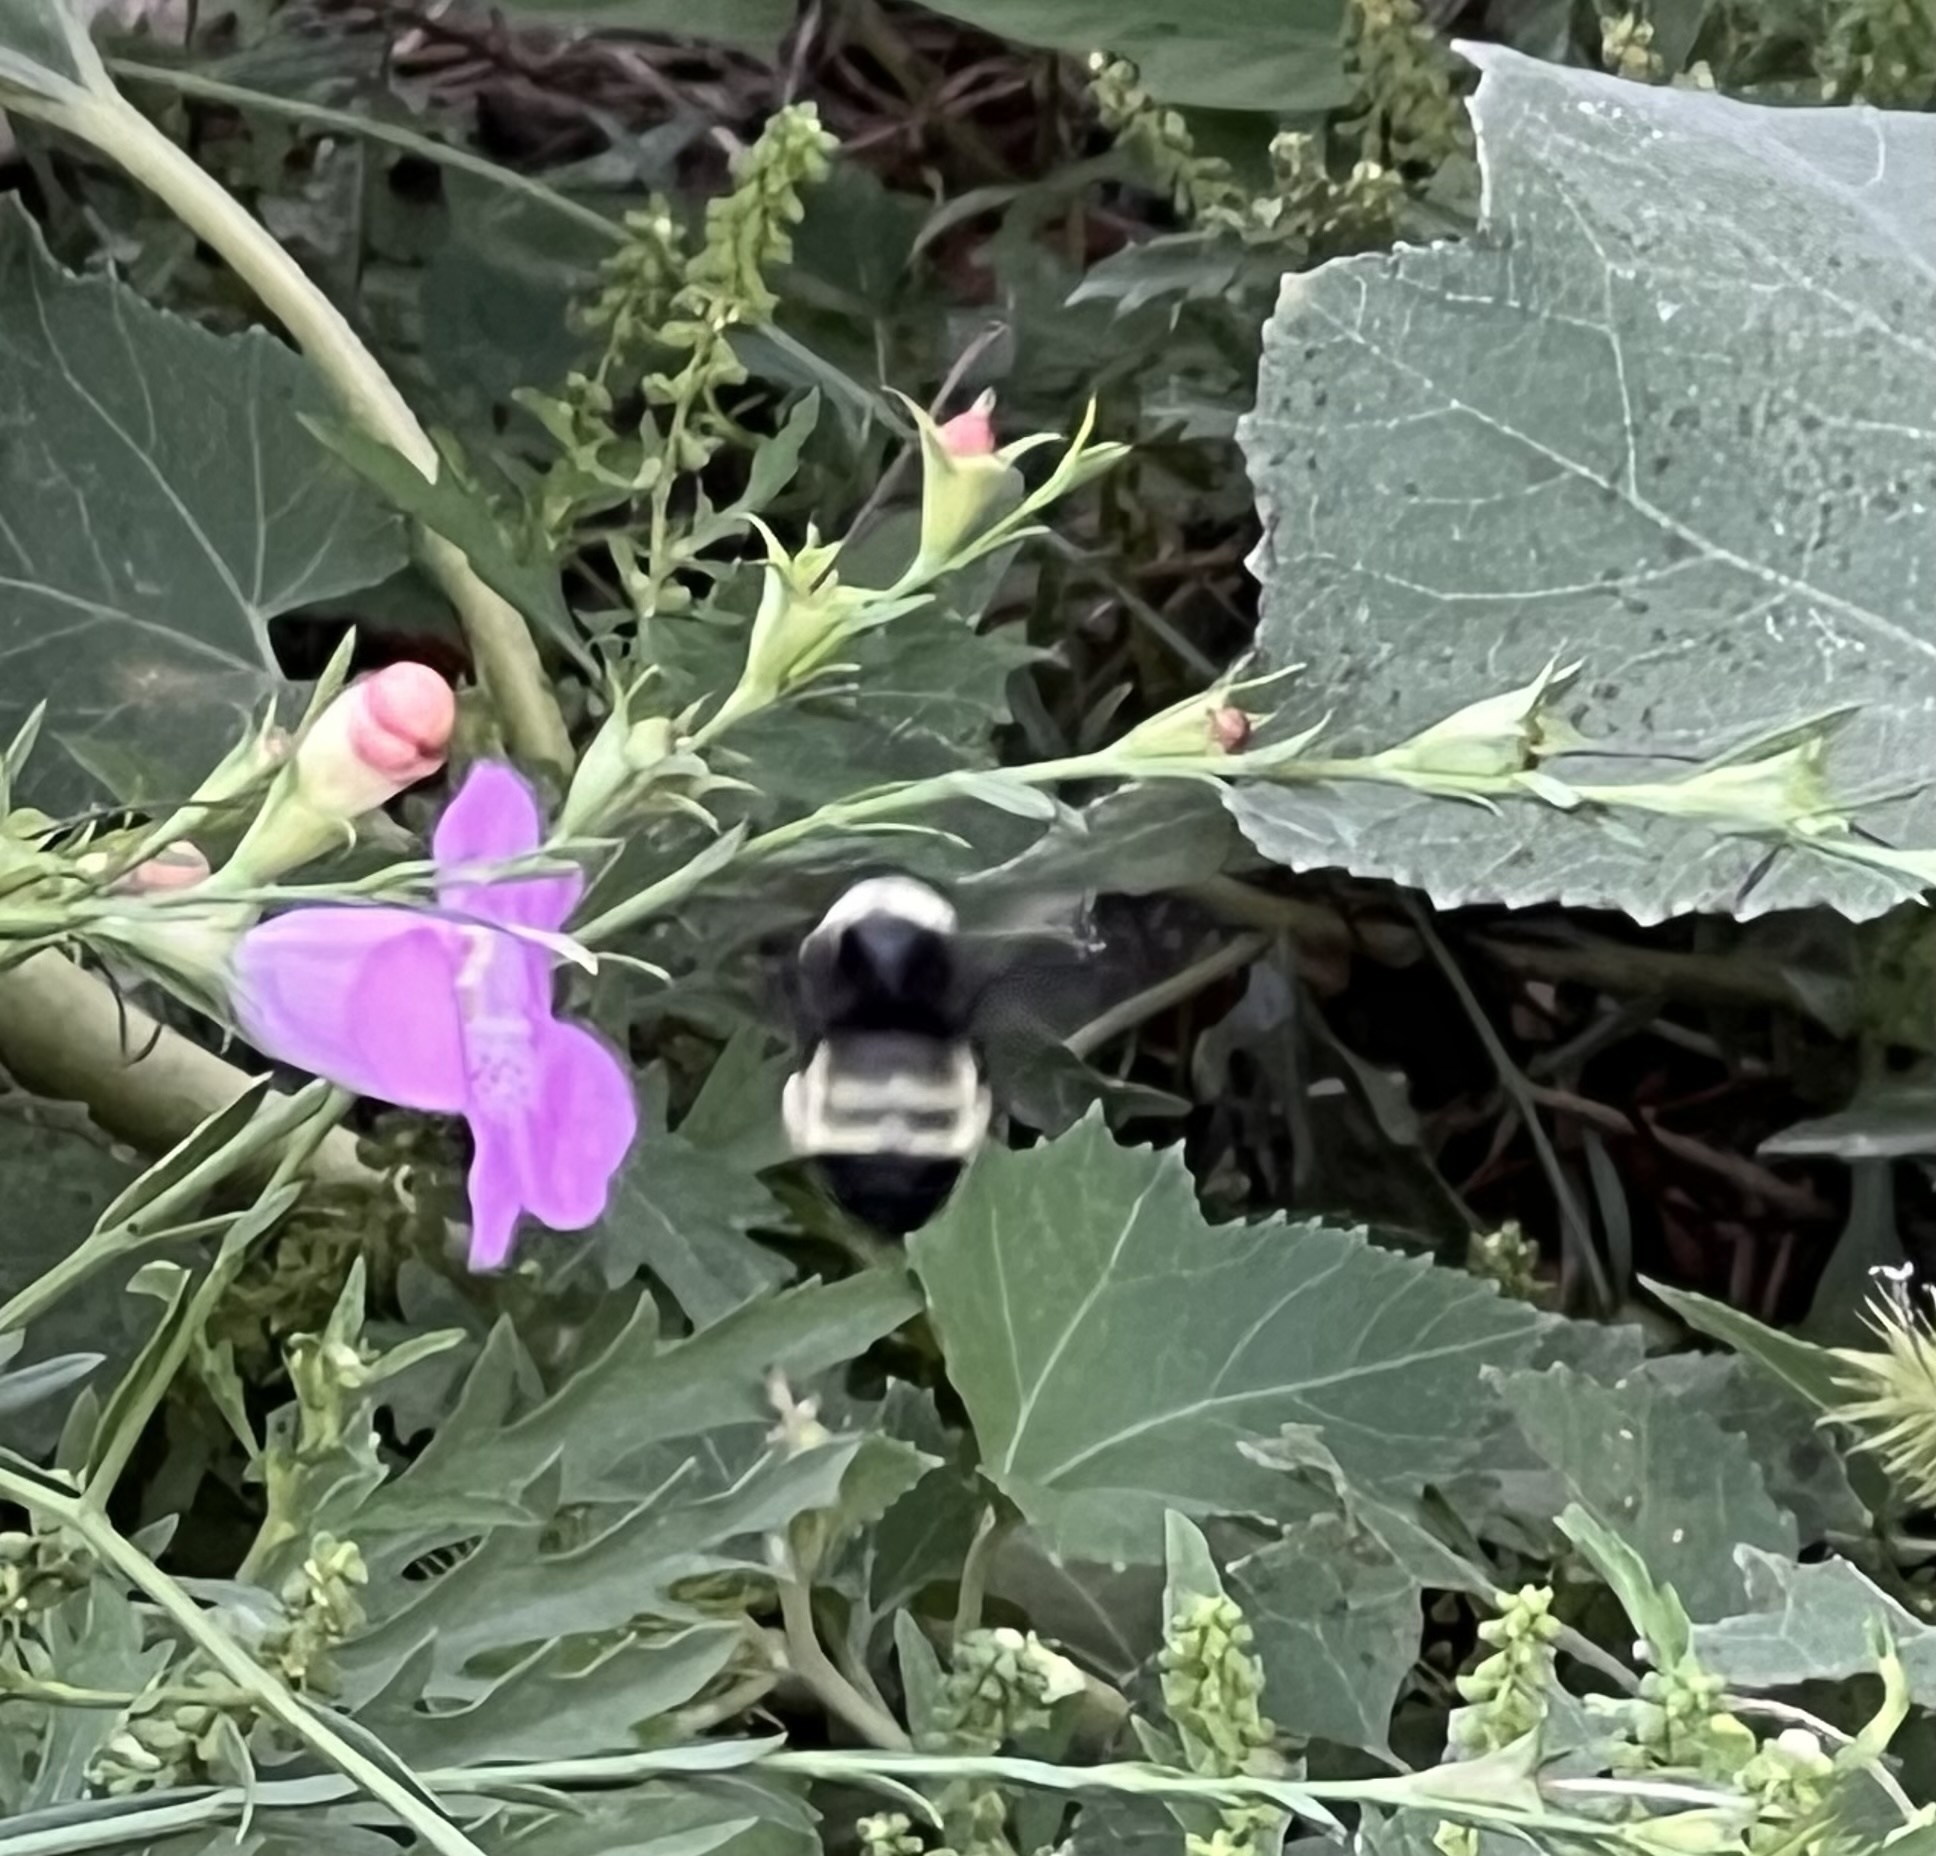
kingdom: Animalia
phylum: Arthropoda
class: Insecta
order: Hymenoptera
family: Apidae
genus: Bombus
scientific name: Bombus pensylvanicus
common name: Bumble bee
